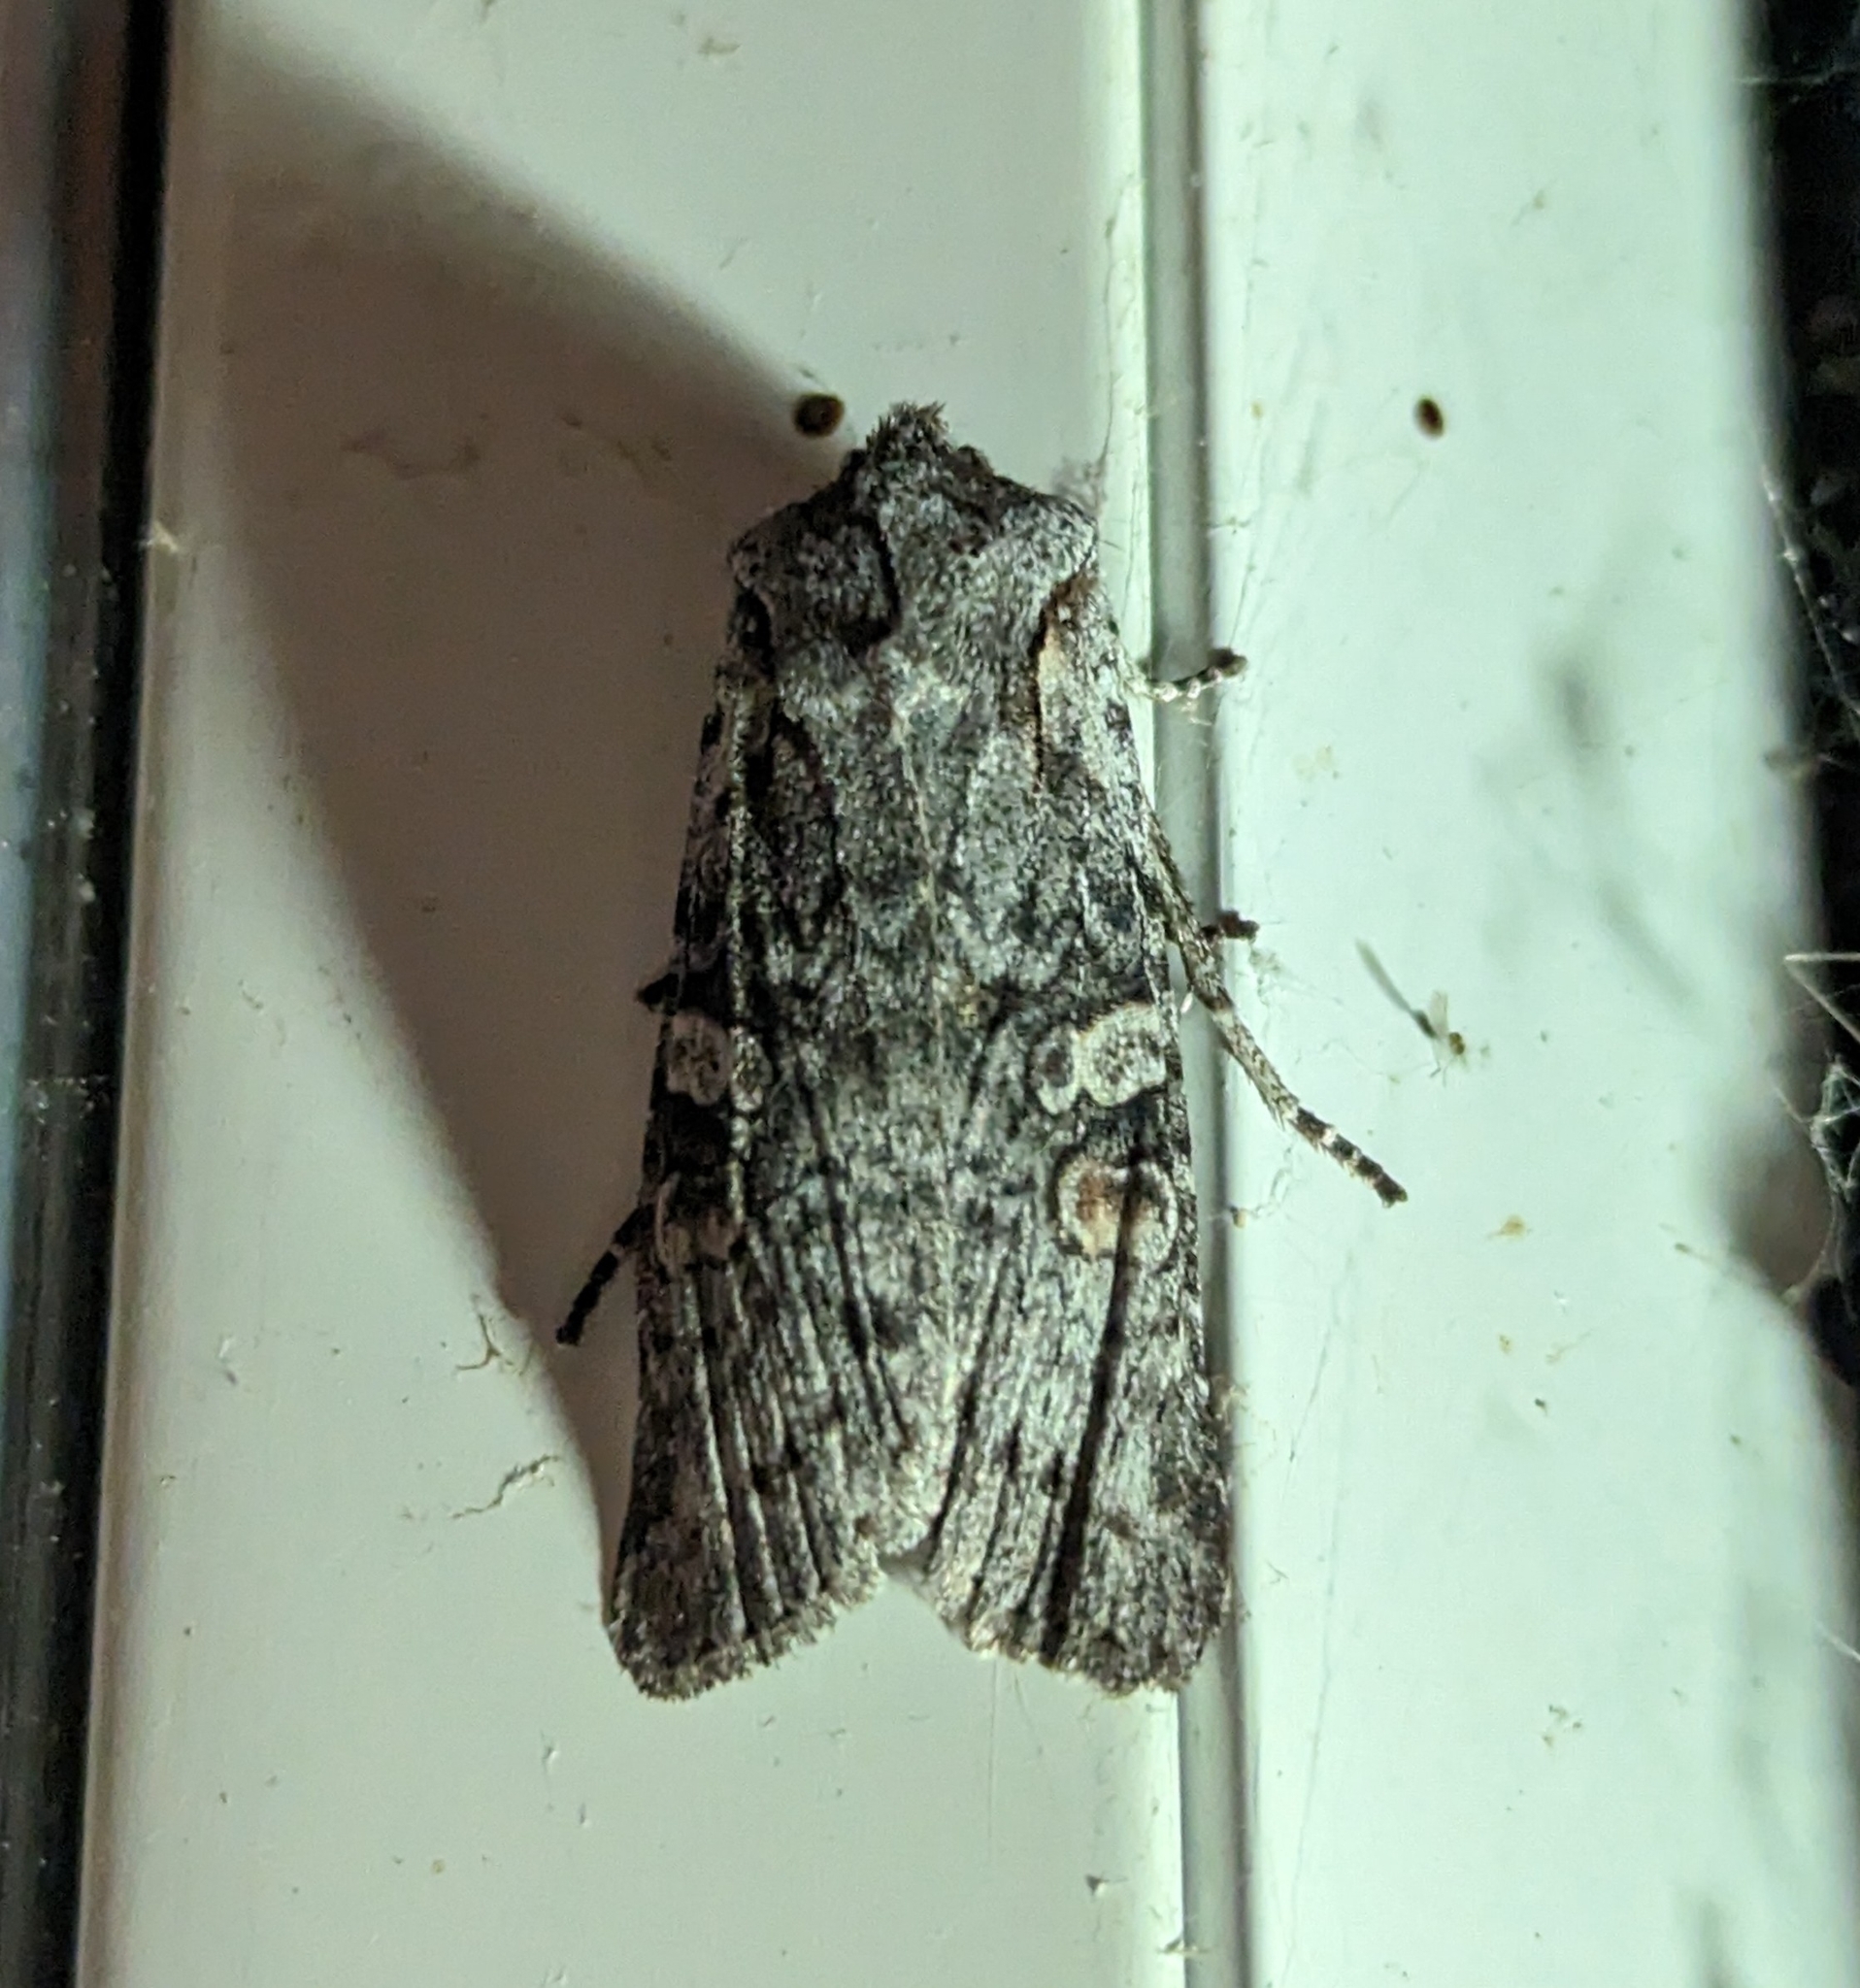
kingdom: Animalia
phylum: Arthropoda
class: Insecta
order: Lepidoptera
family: Noctuidae
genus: Lithophane
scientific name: Lithophane pertorrida
